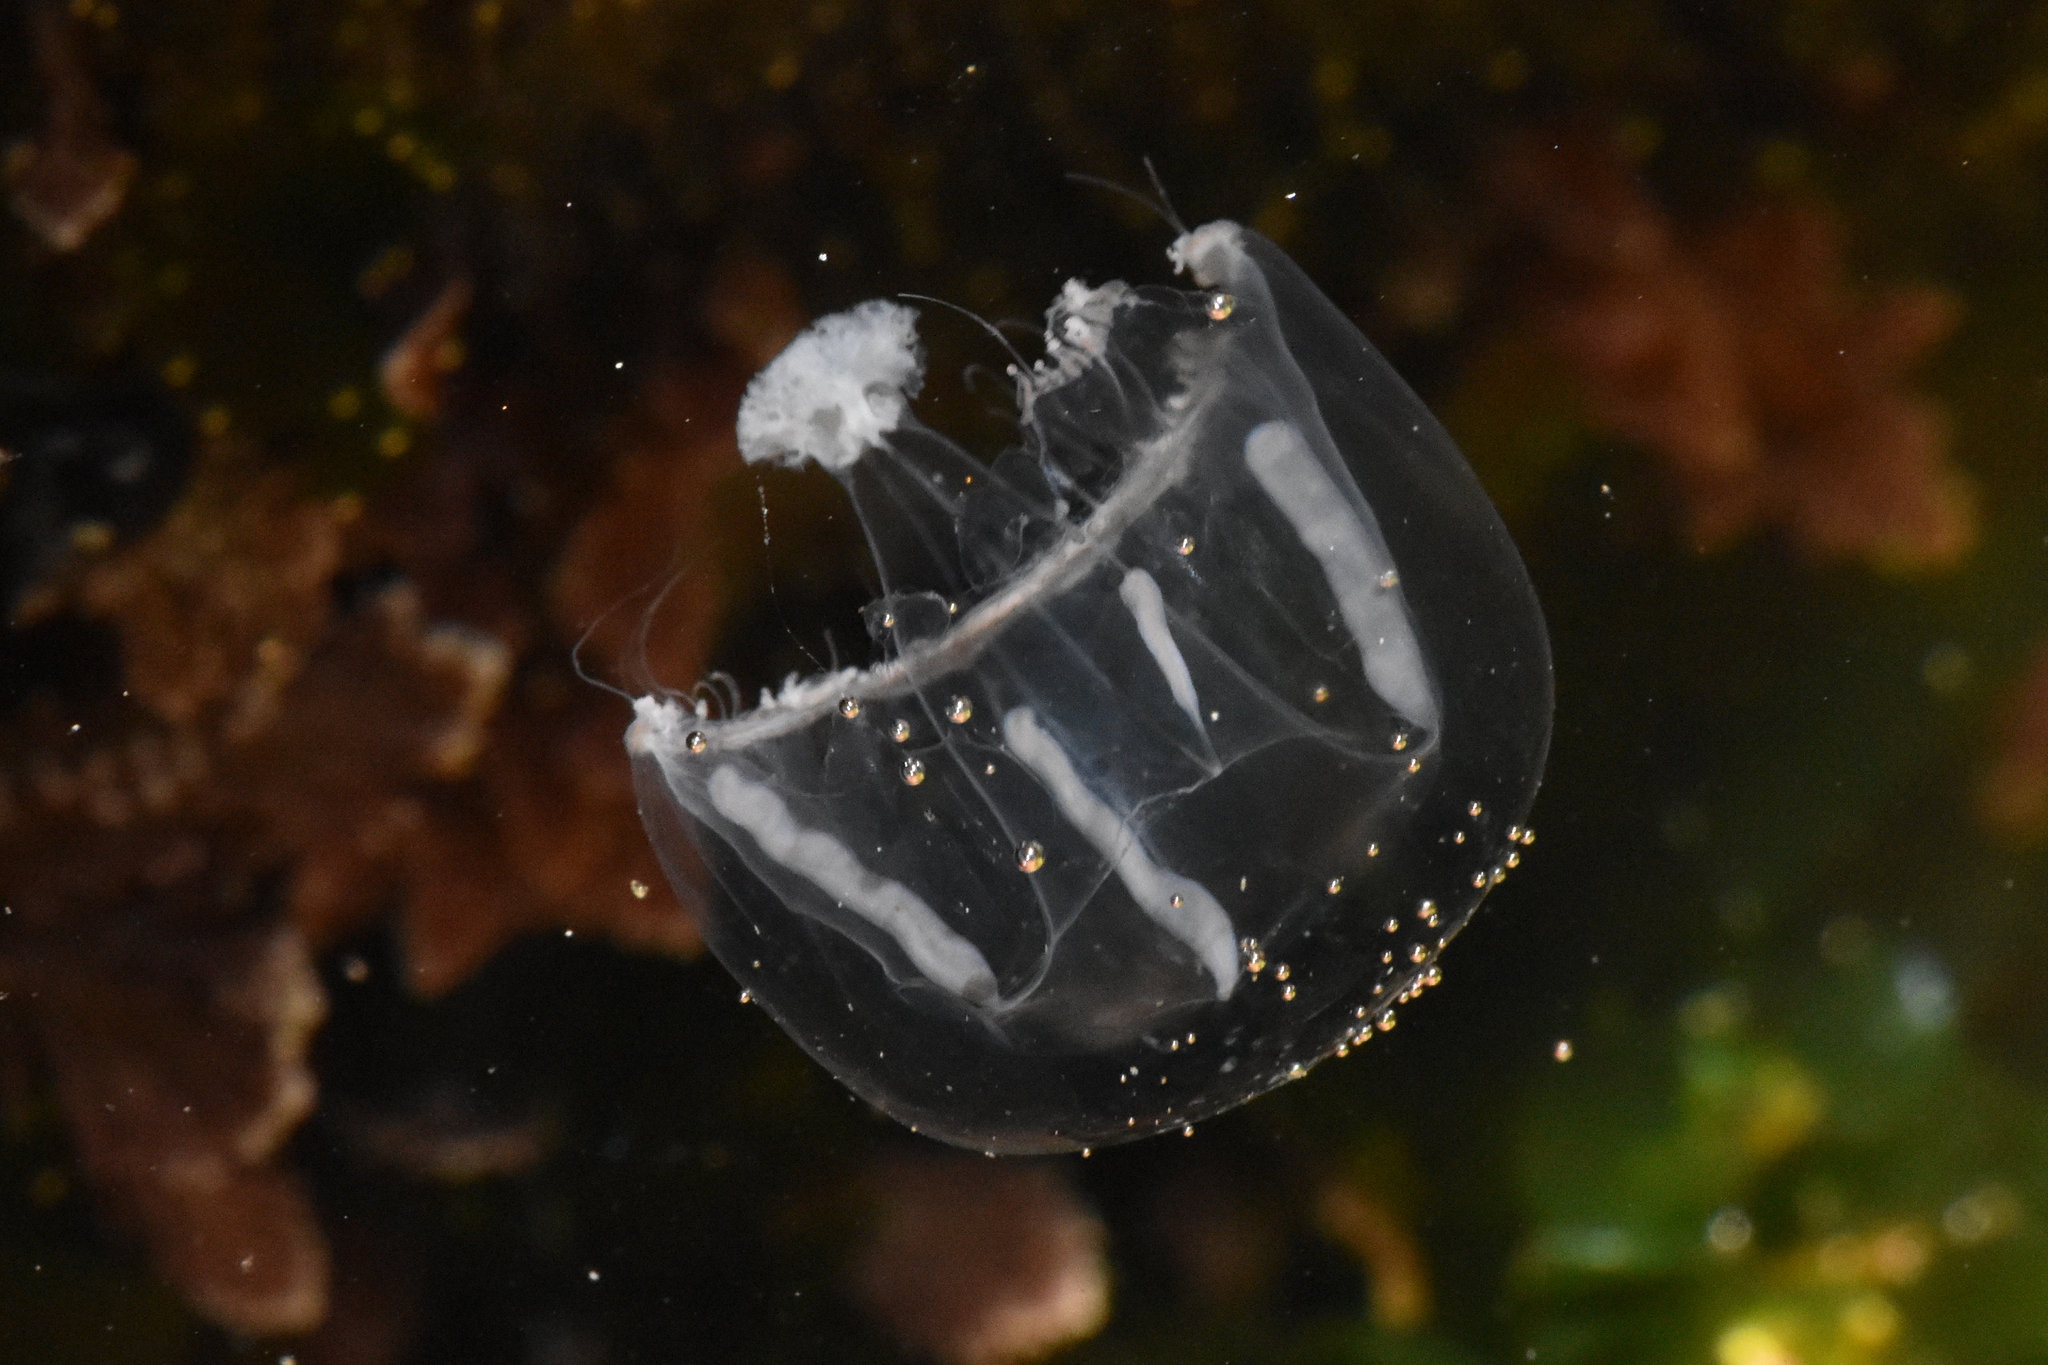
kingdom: Animalia
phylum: Cnidaria
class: Hydrozoa
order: Leptothecata
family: Eirenidae
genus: Eutonina
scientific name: Eutonina indicans
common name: Umbrella jellyfish
